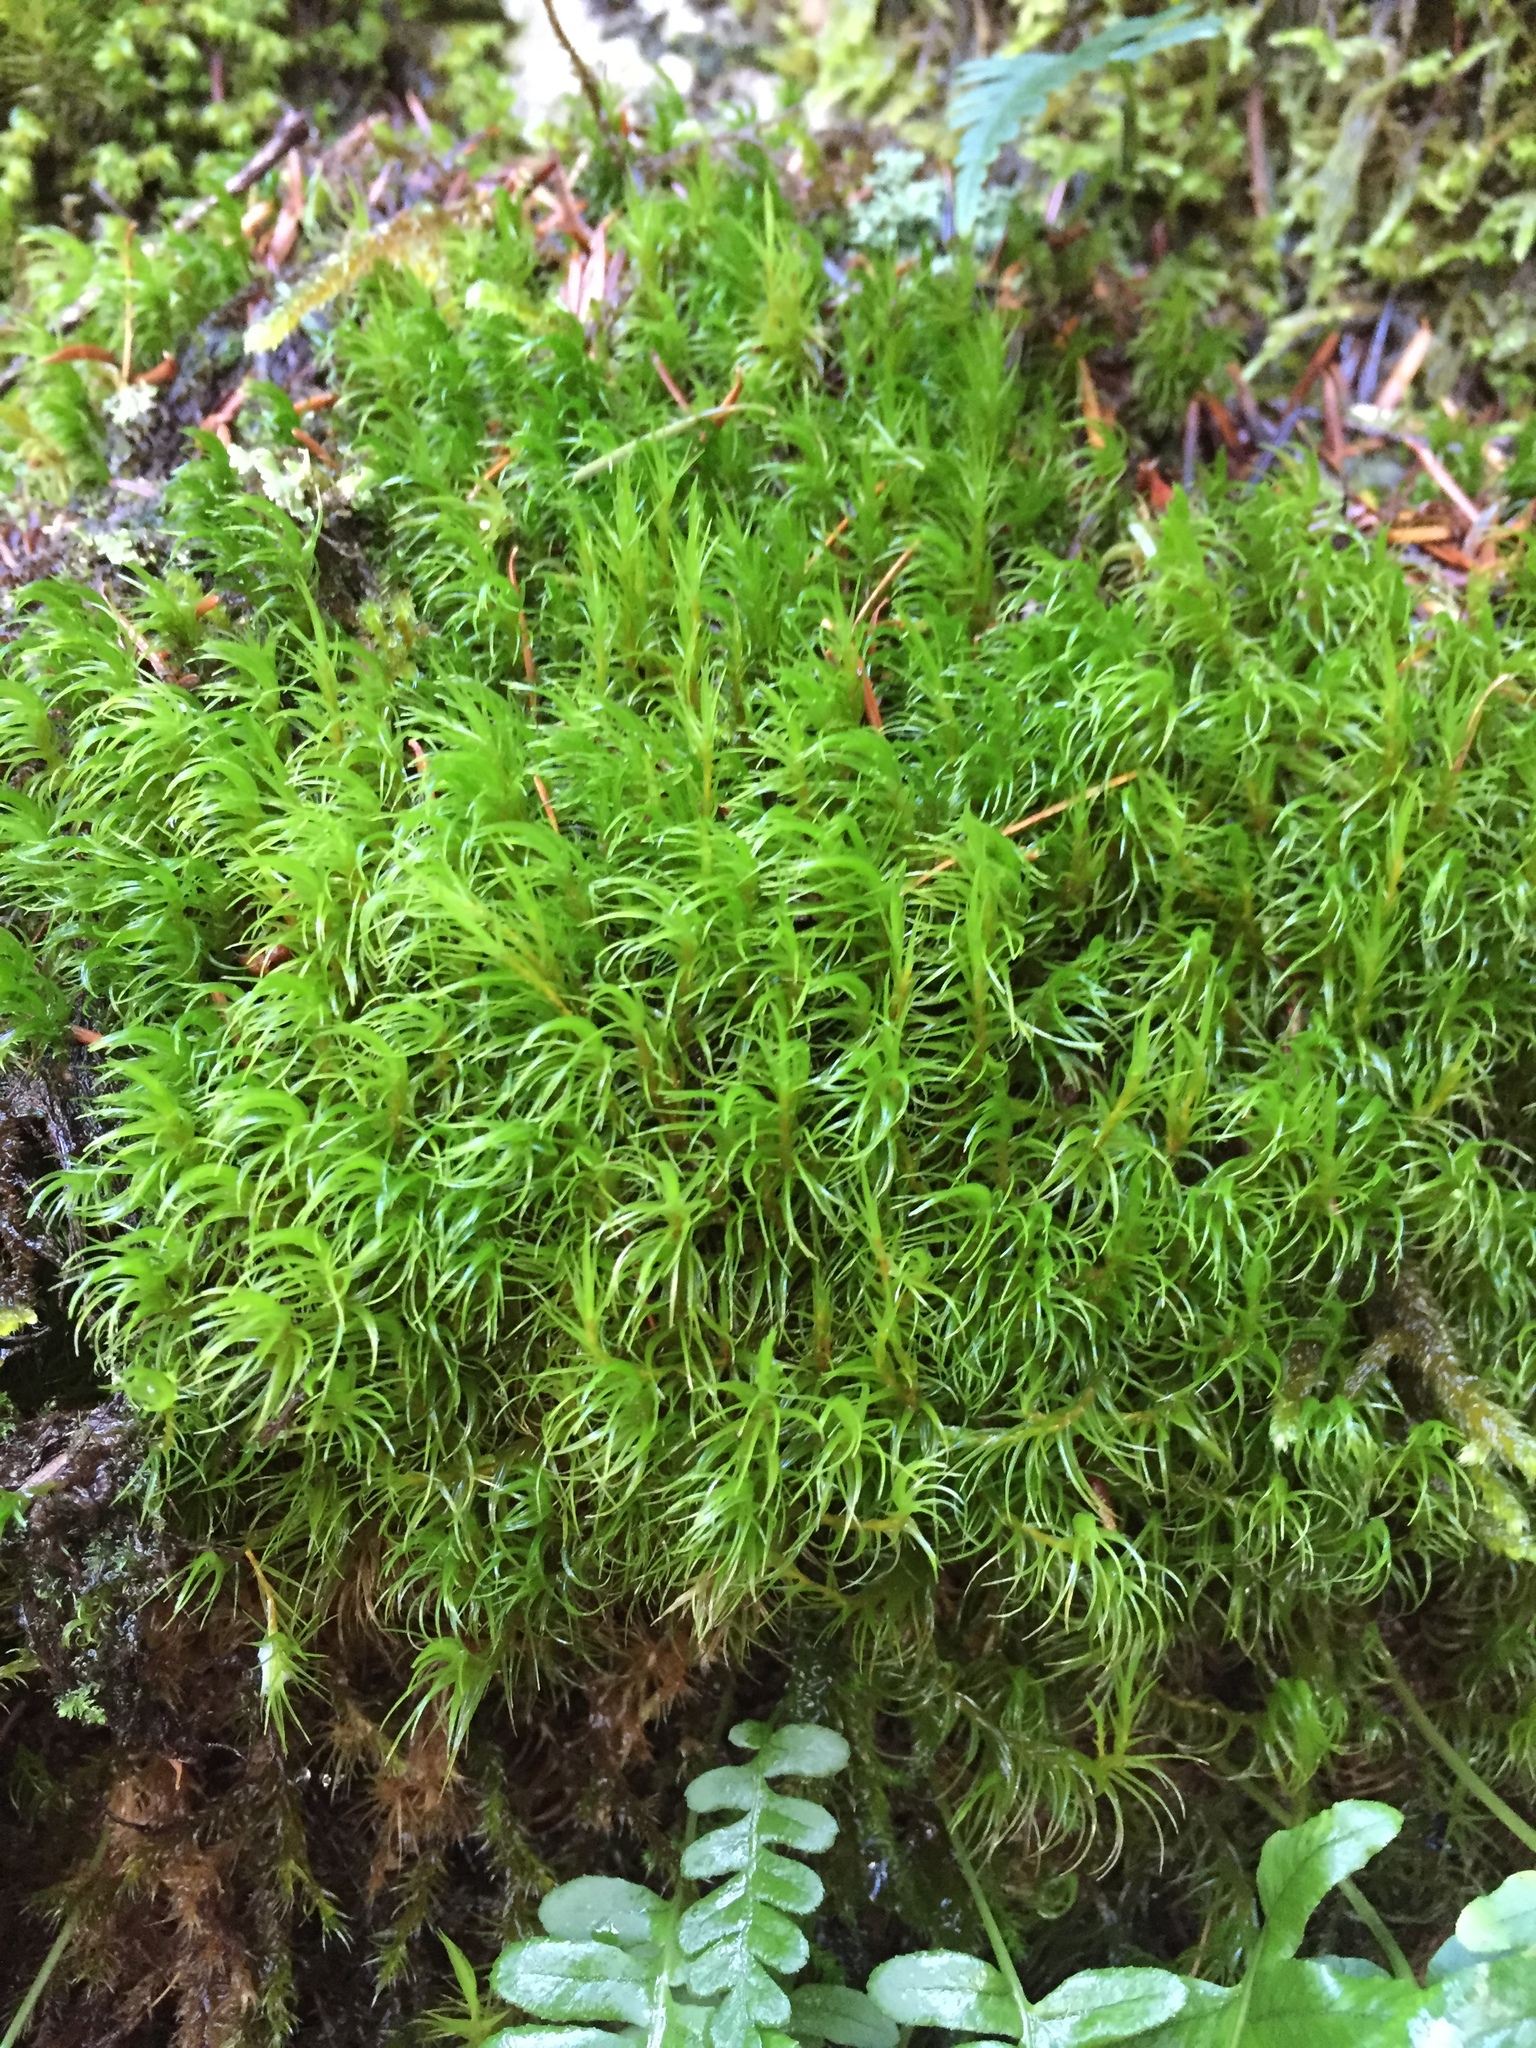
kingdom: Plantae
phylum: Bryophyta
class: Bryopsida
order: Dicranales
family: Dicranaceae
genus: Dicranum
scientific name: Dicranum scoparium
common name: Broom fork-moss
